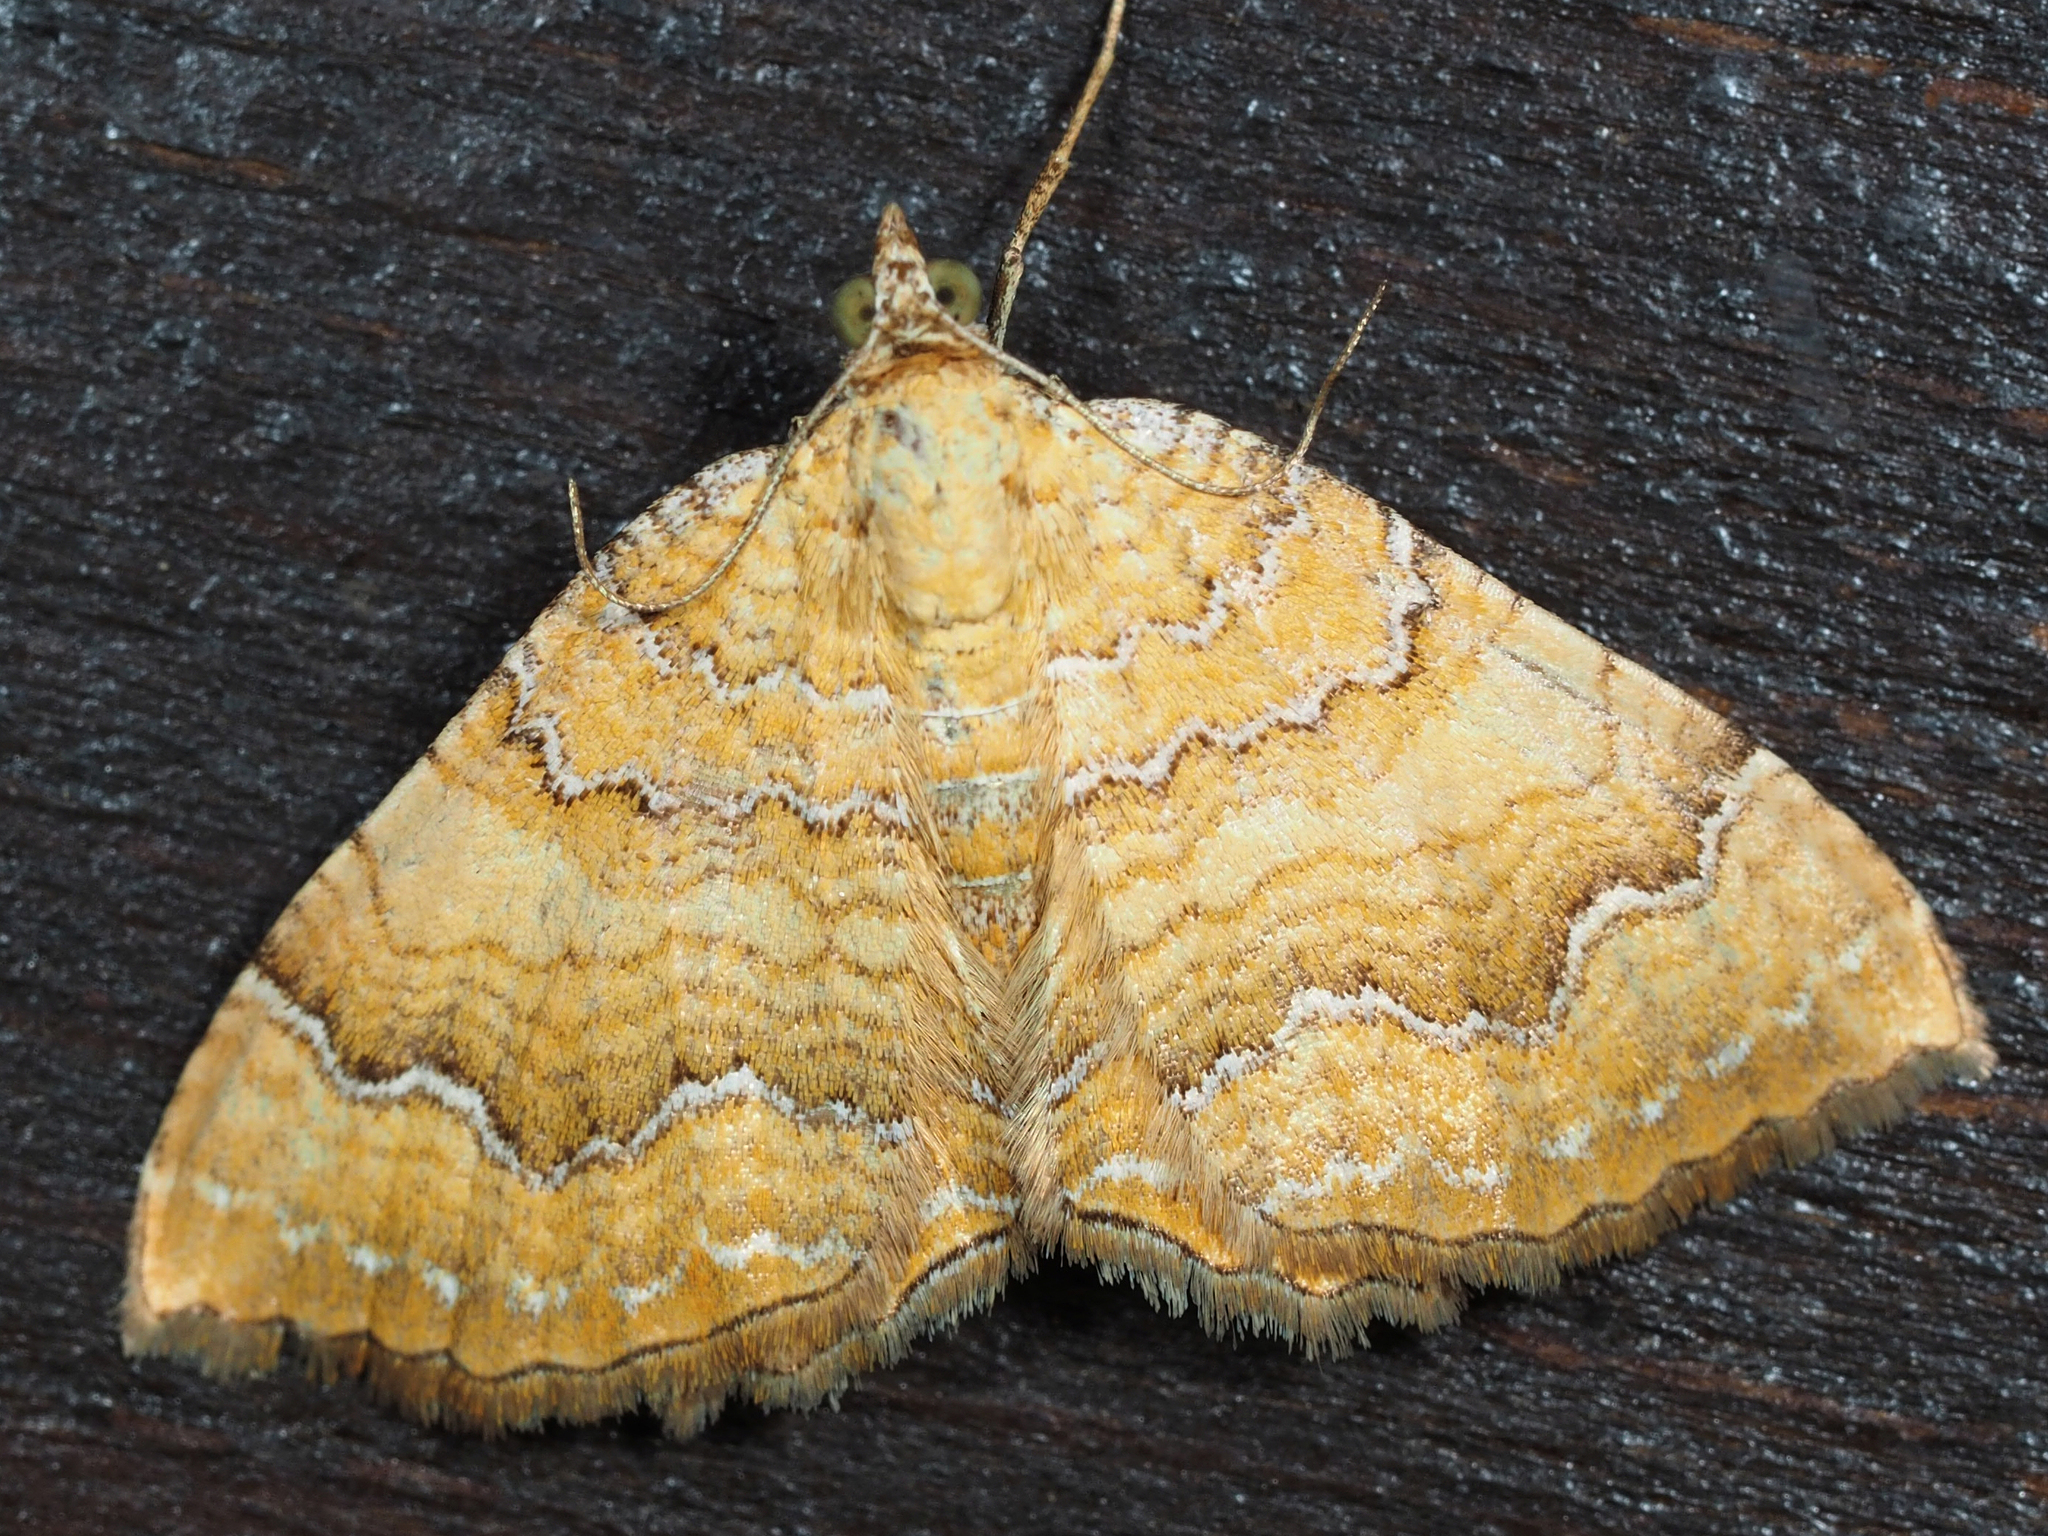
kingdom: Animalia
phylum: Arthropoda
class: Insecta
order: Lepidoptera
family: Geometridae
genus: Camptogramma
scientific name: Camptogramma bilineata
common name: Yellow shell
